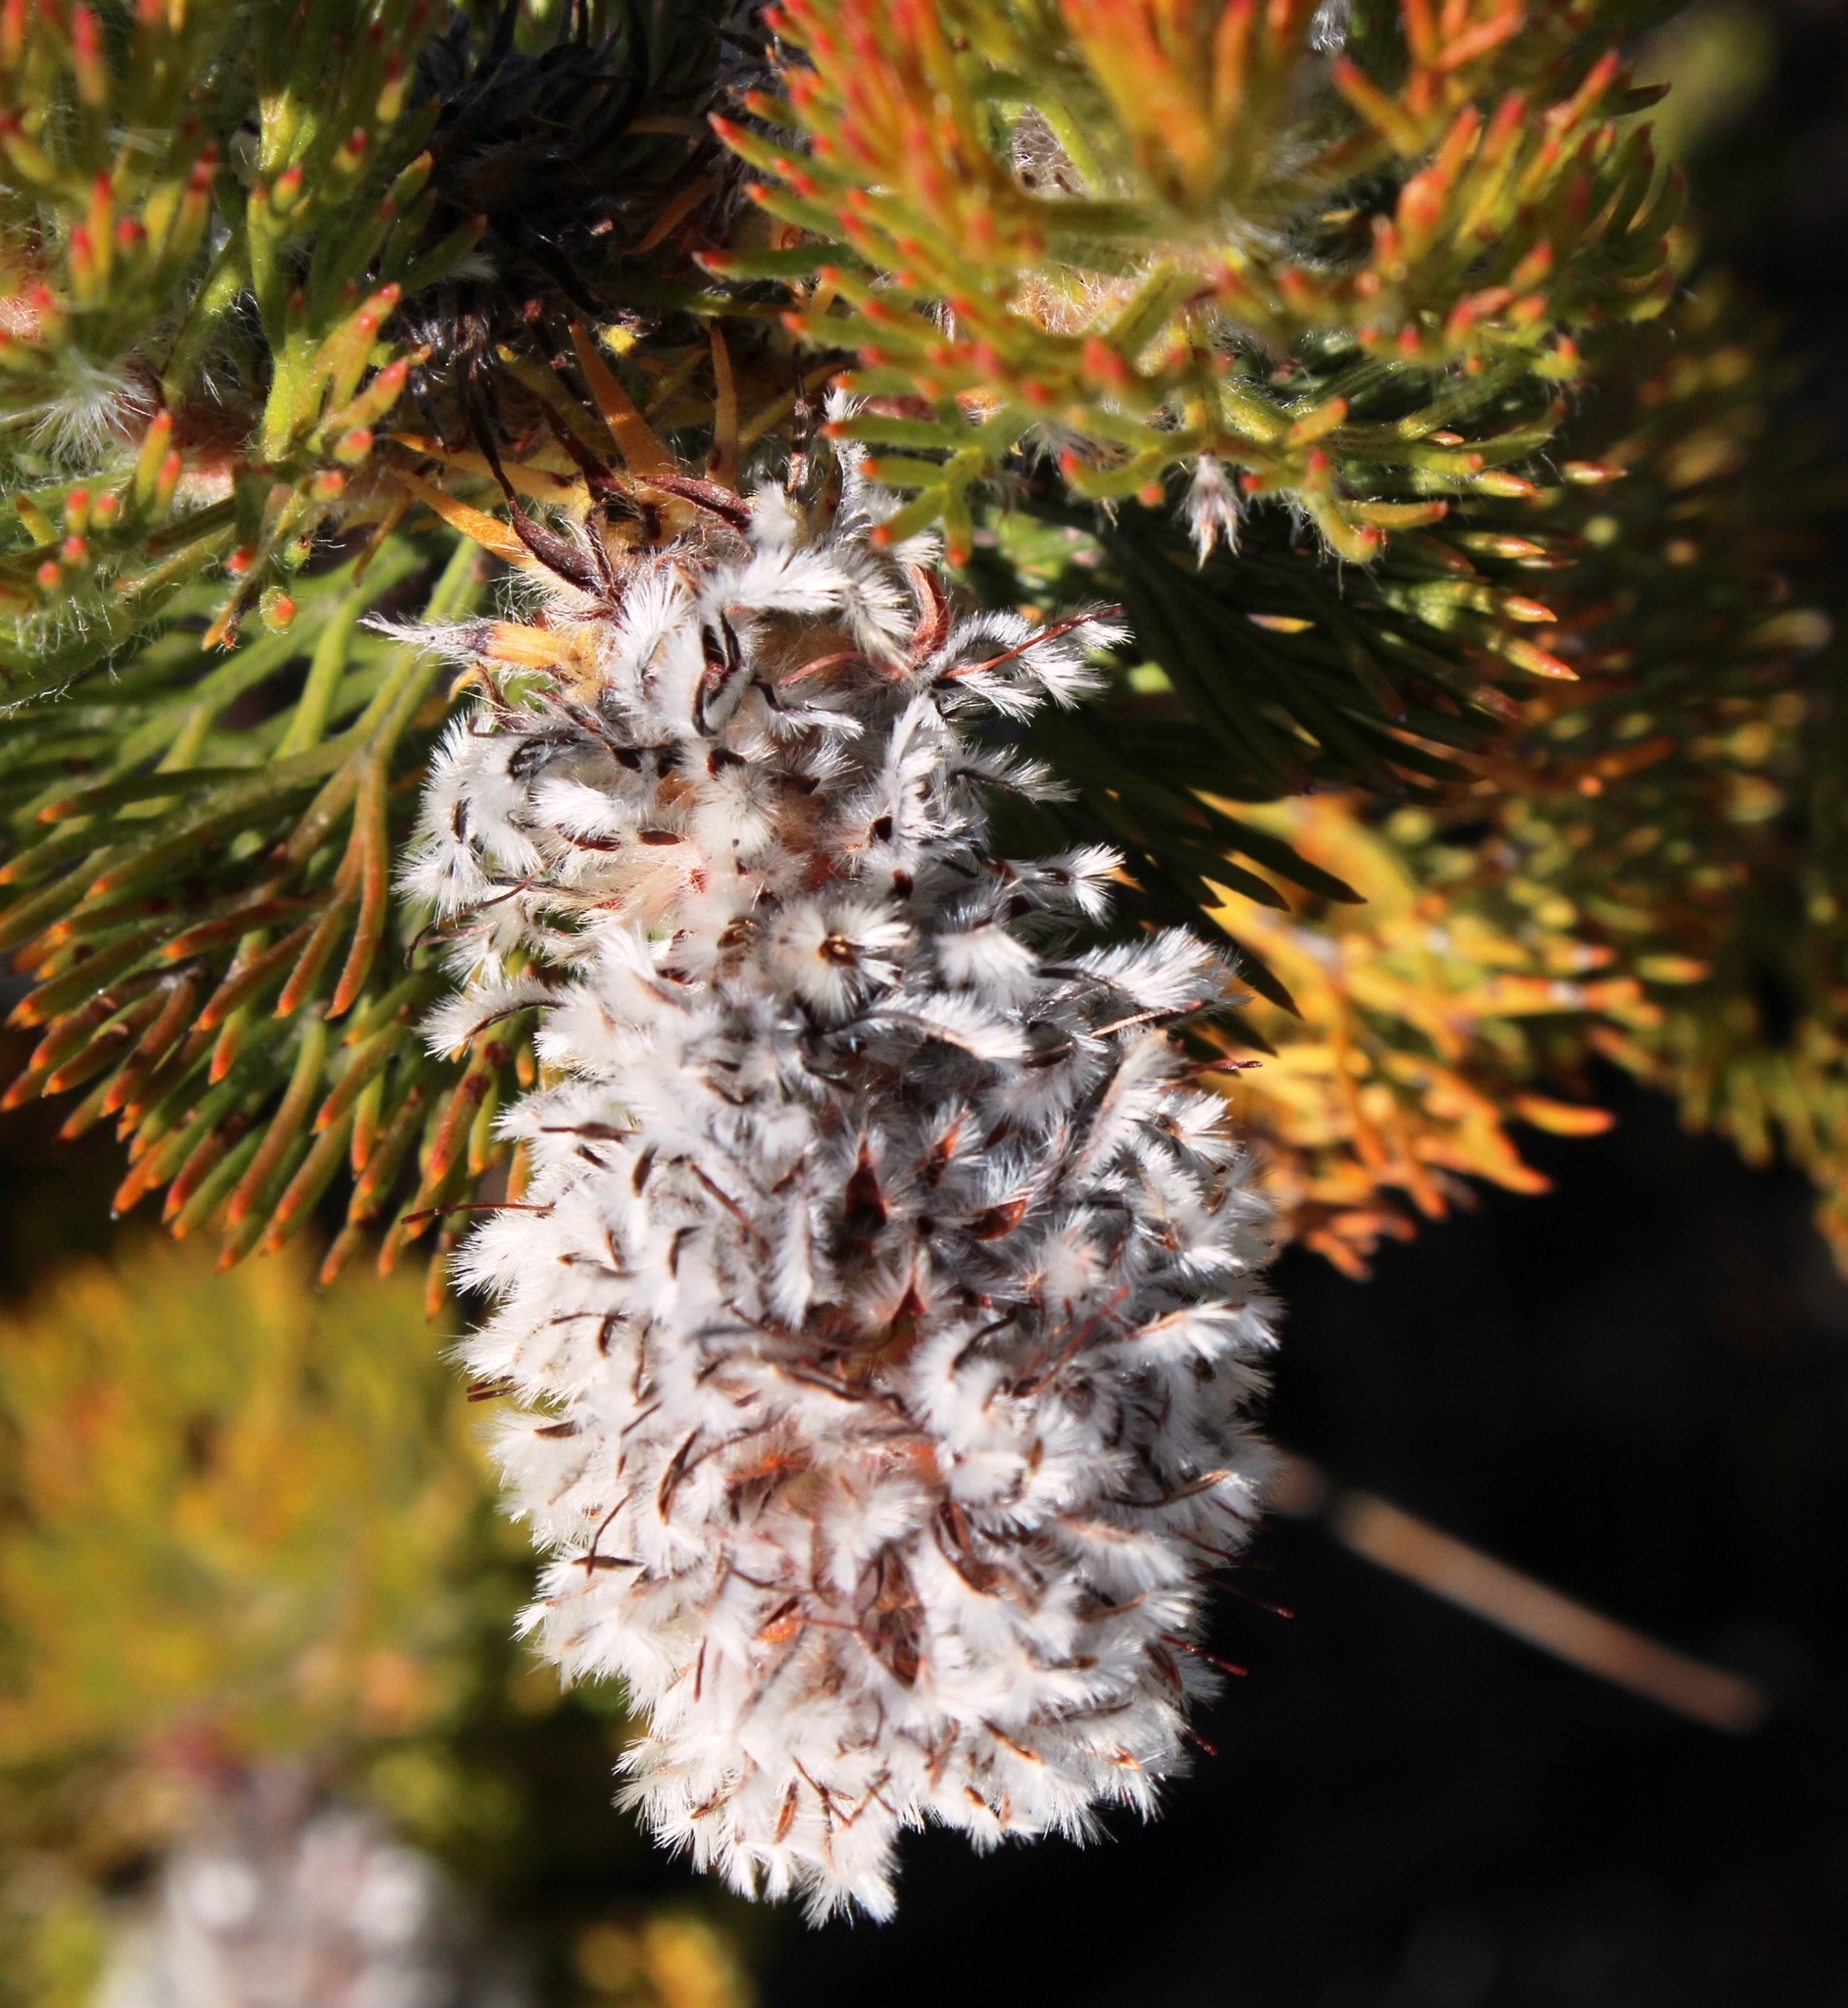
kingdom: Plantae
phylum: Tracheophyta
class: Magnoliopsida
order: Proteales
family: Proteaceae
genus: Serruria
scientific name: Serruria hirsuta
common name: Swartkops spiderhead
